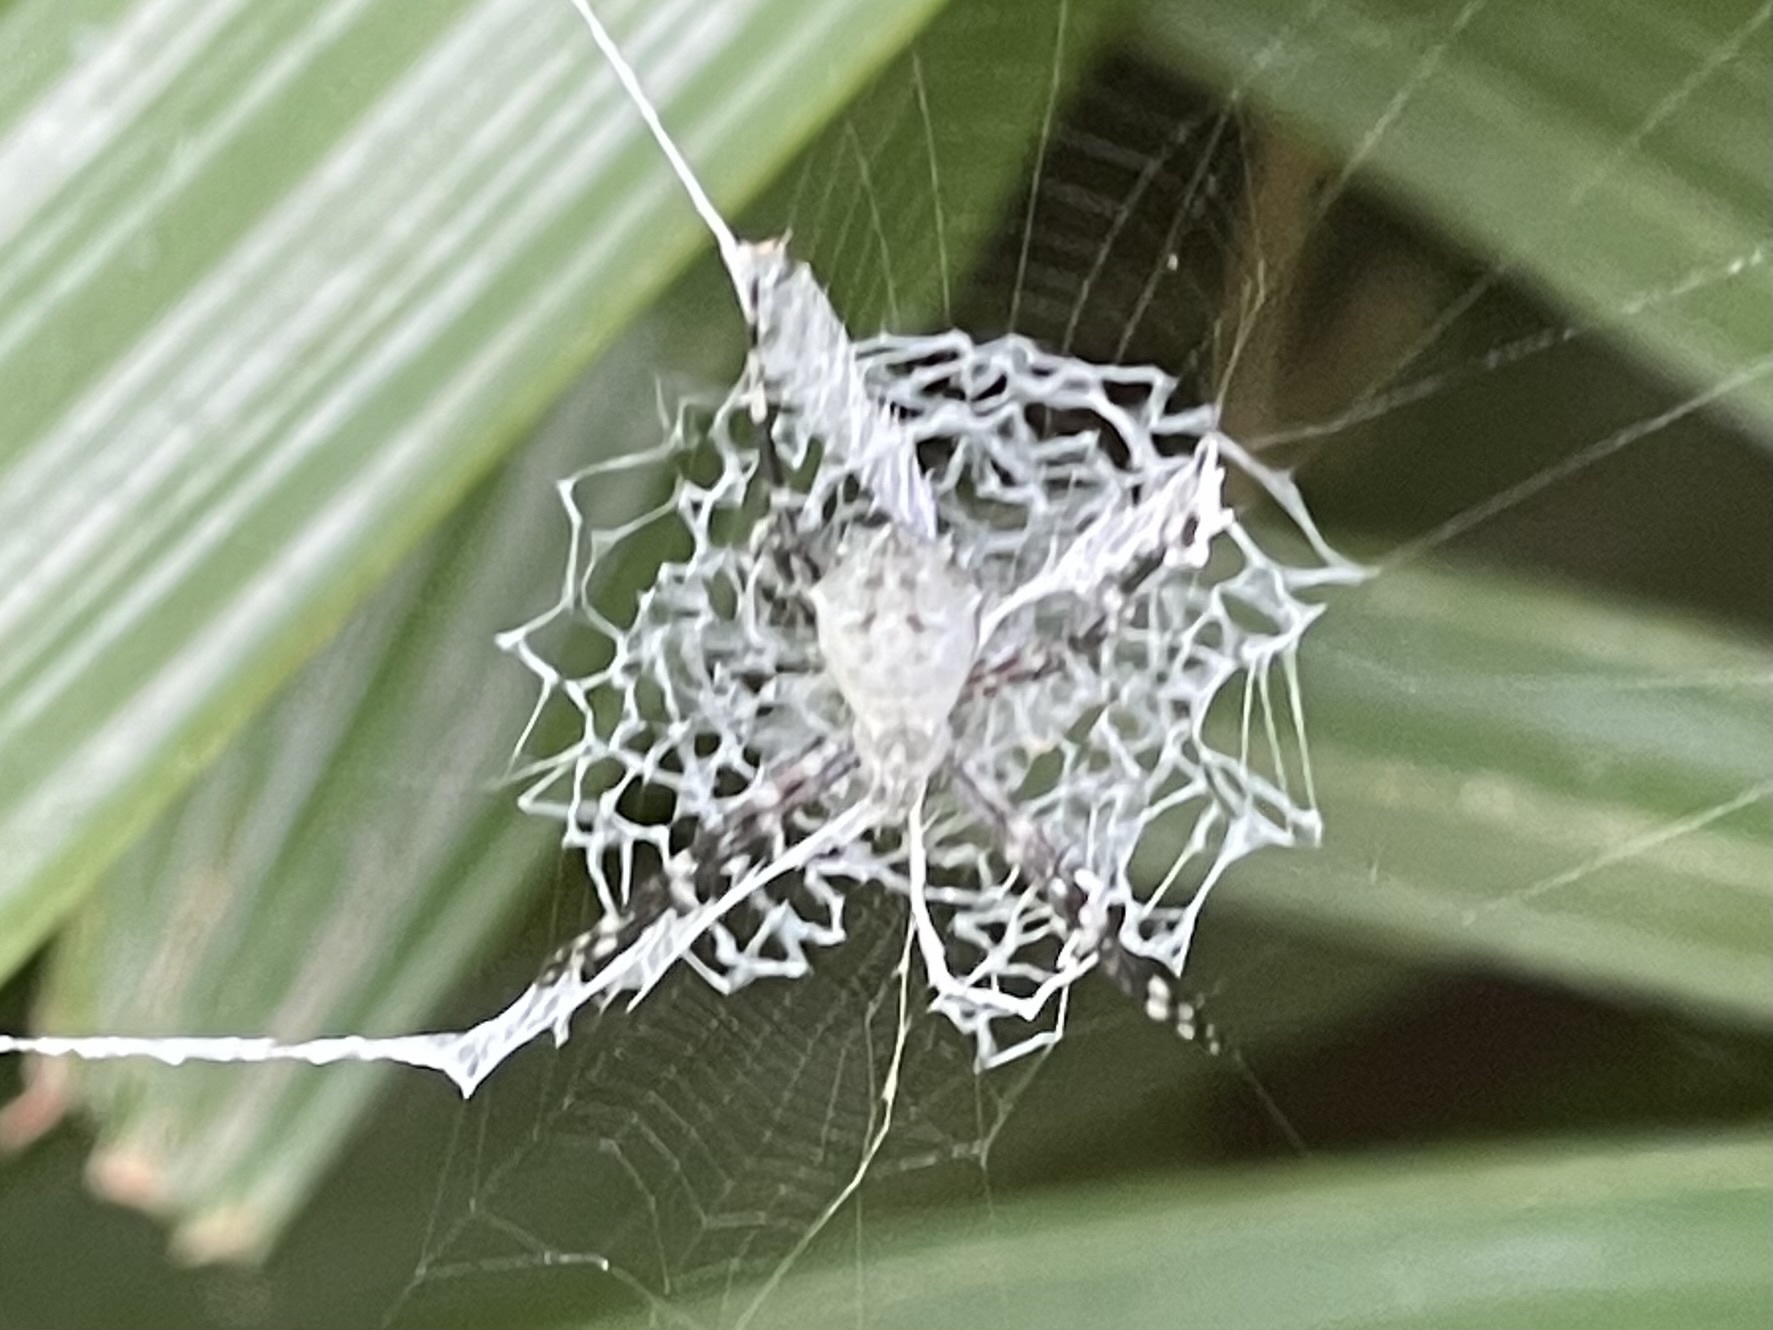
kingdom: Animalia
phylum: Arthropoda
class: Arachnida
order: Araneae
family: Araneidae
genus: Argiope
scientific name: Argiope submaronica
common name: Orb weavers
